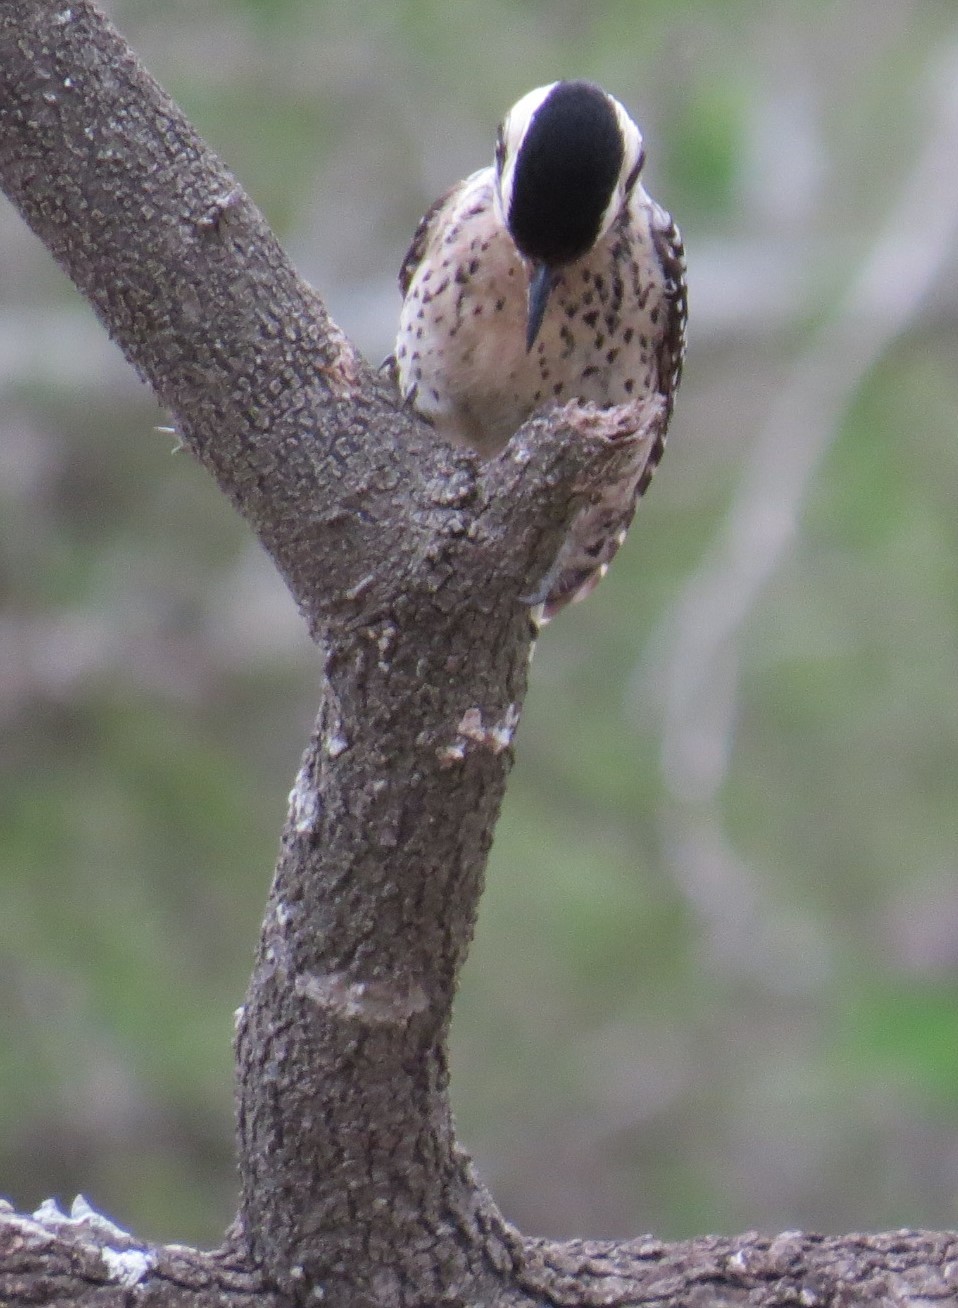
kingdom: Animalia
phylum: Chordata
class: Aves
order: Piciformes
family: Picidae
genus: Dryobates
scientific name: Dryobates scalaris
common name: Ladder-backed woodpecker
